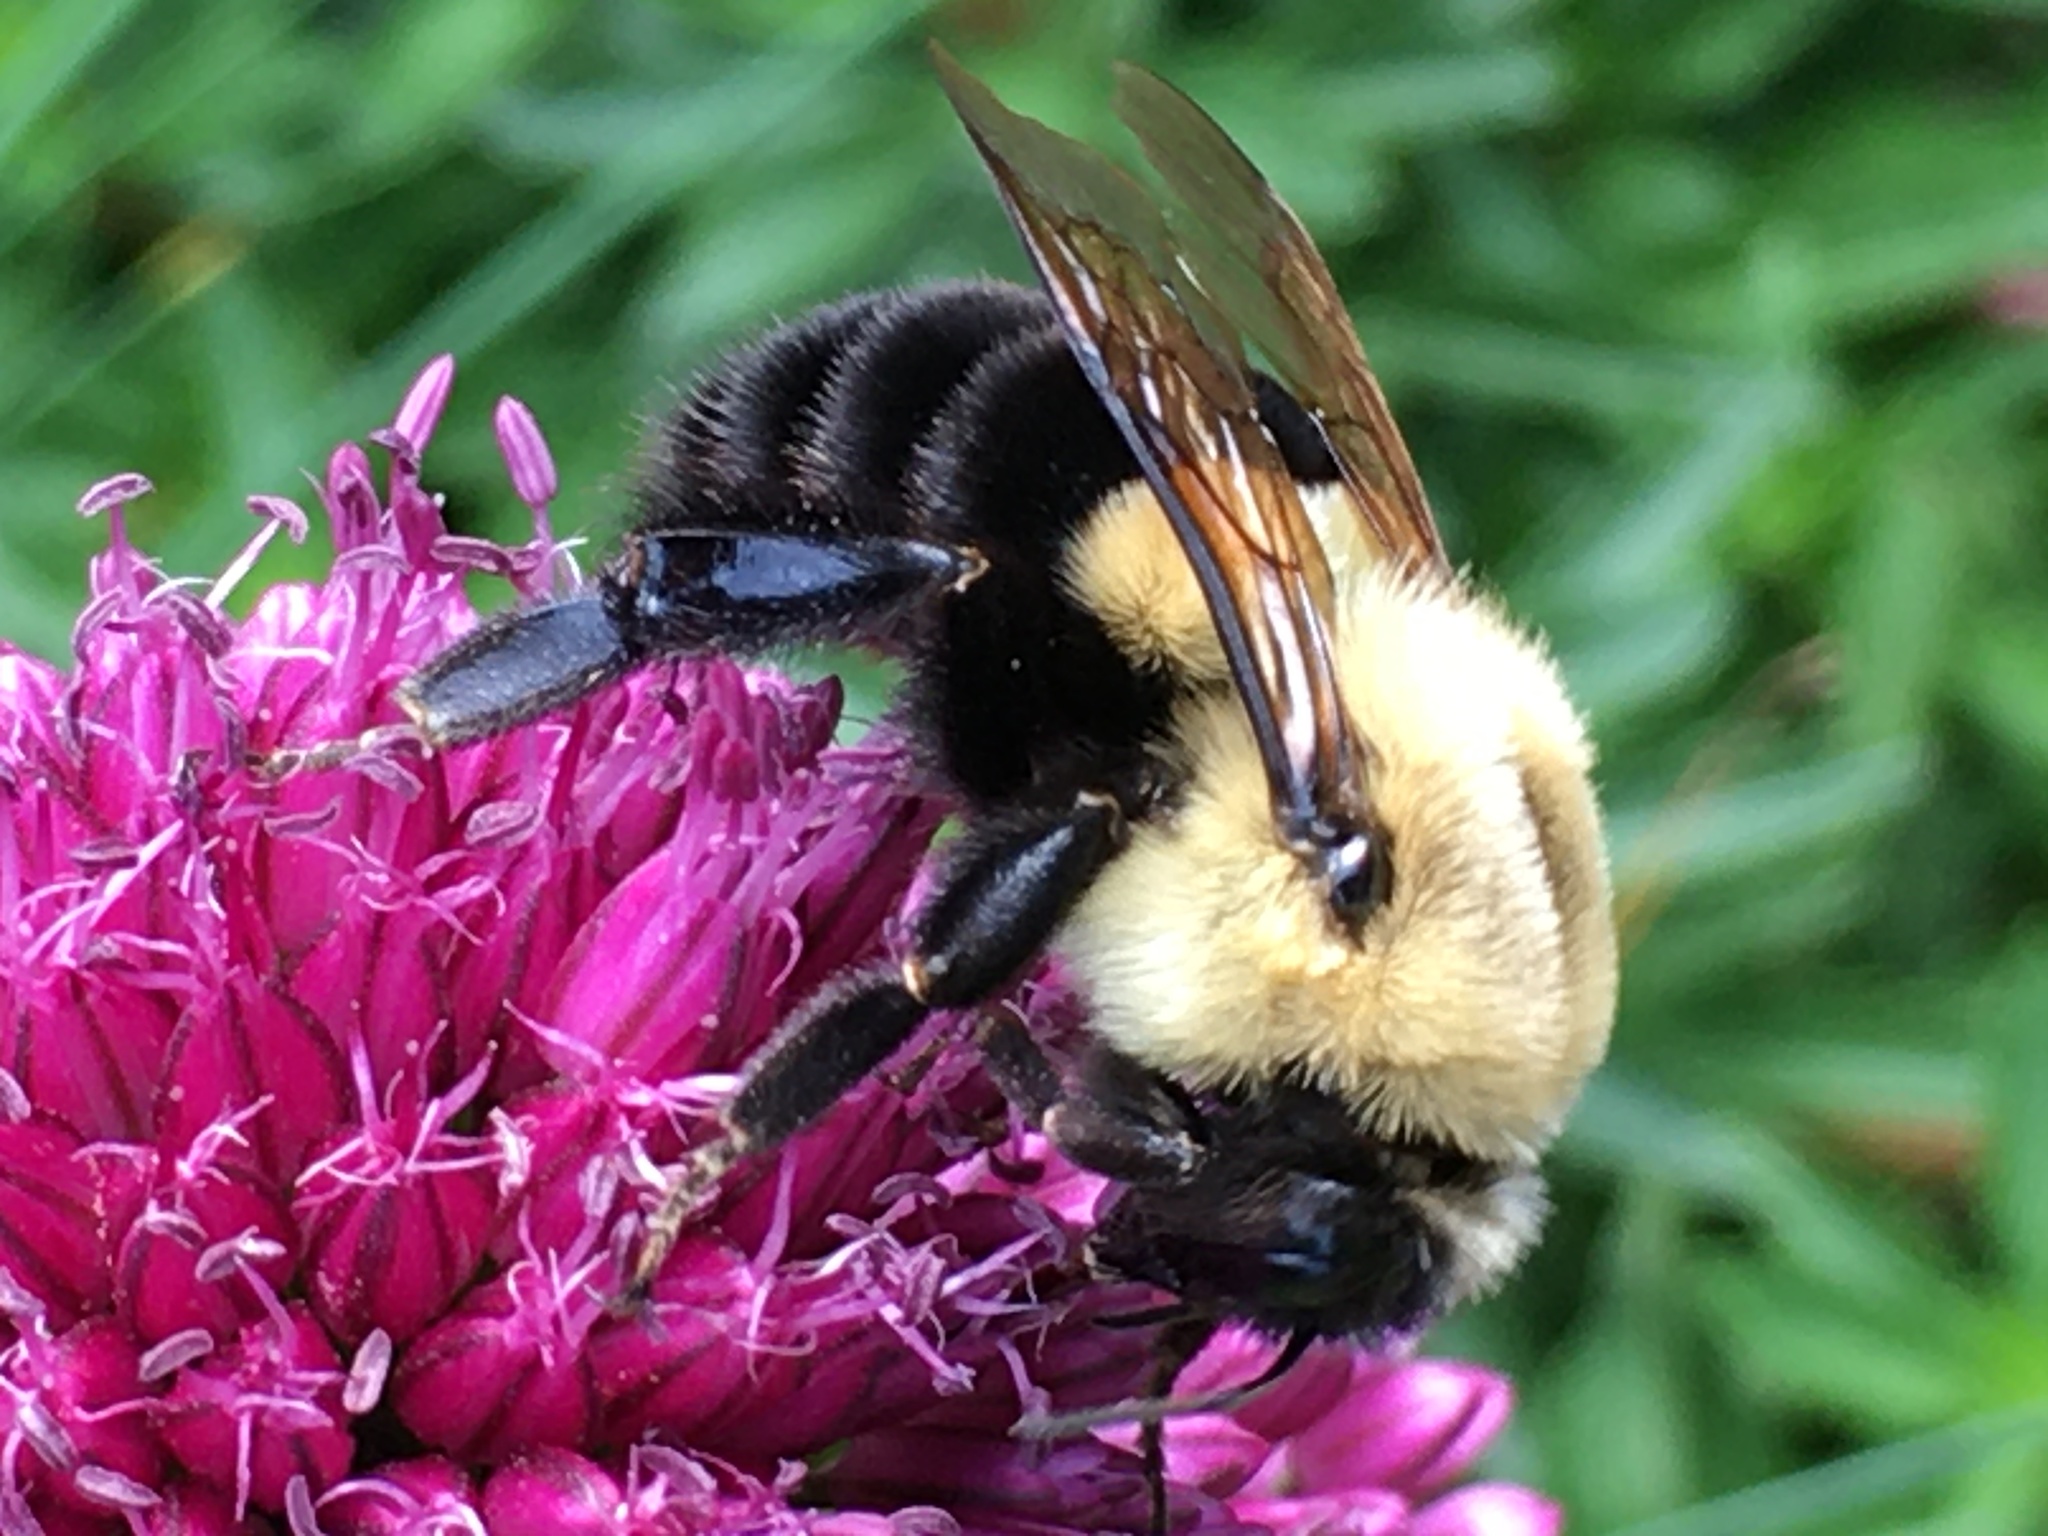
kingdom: Animalia
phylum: Arthropoda
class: Insecta
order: Hymenoptera
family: Apidae
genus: Bombus
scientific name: Bombus impatiens
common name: Common eastern bumble bee
